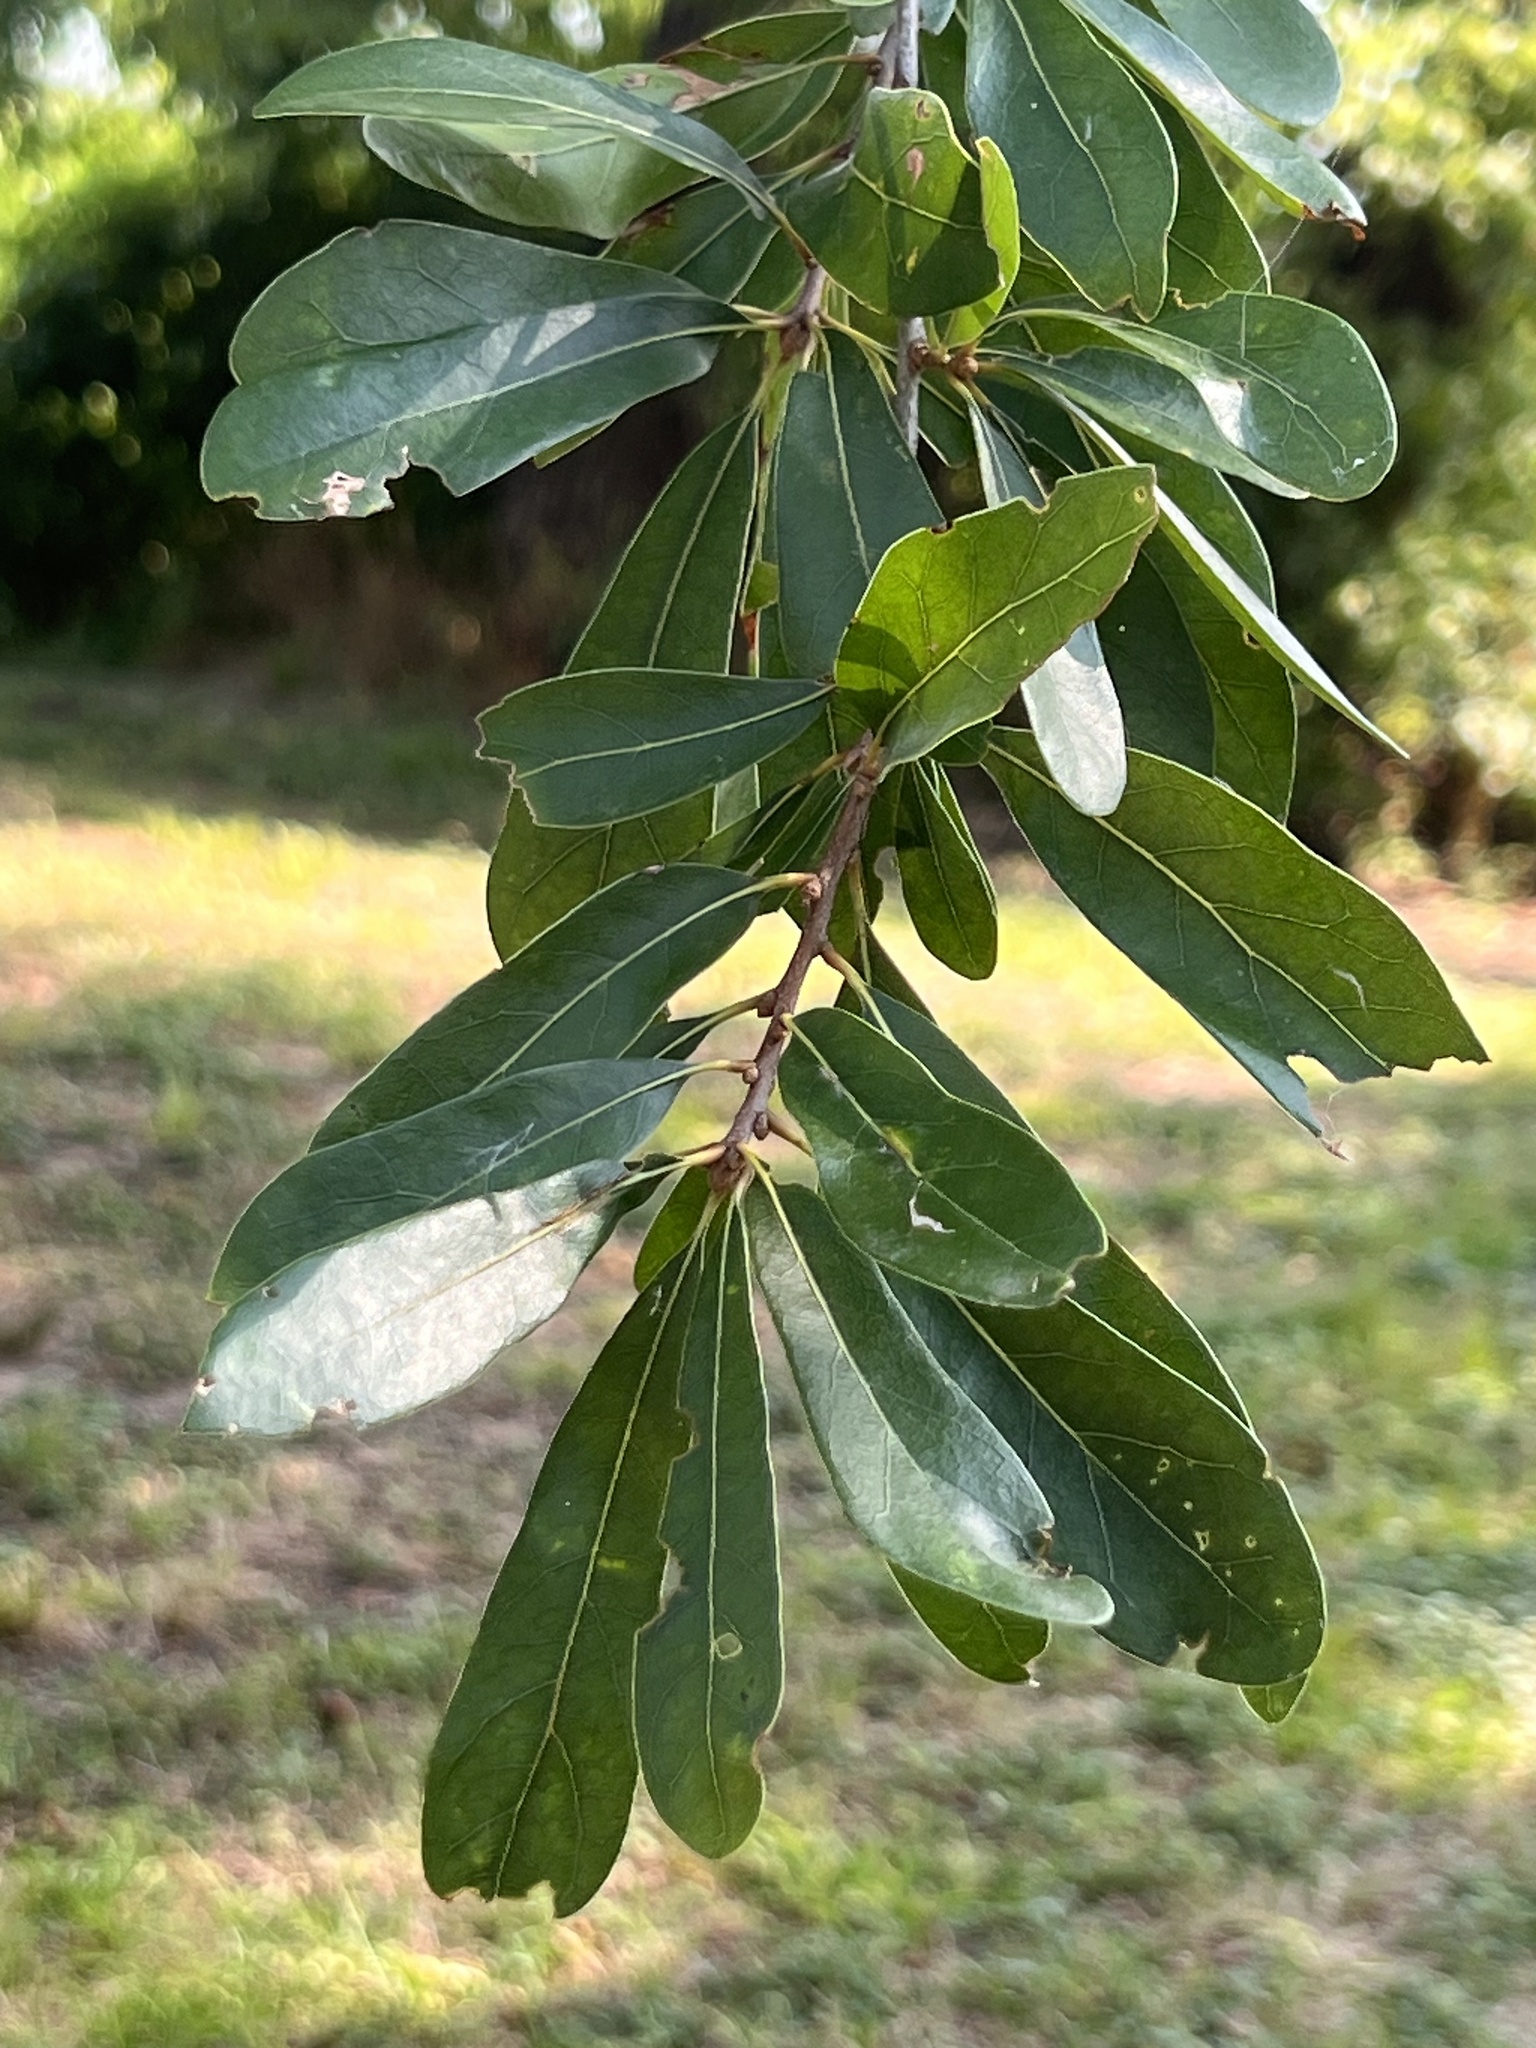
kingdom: Plantae
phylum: Tracheophyta
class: Magnoliopsida
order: Fagales
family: Fagaceae
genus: Quercus
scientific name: Quercus nigra
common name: Water oak
